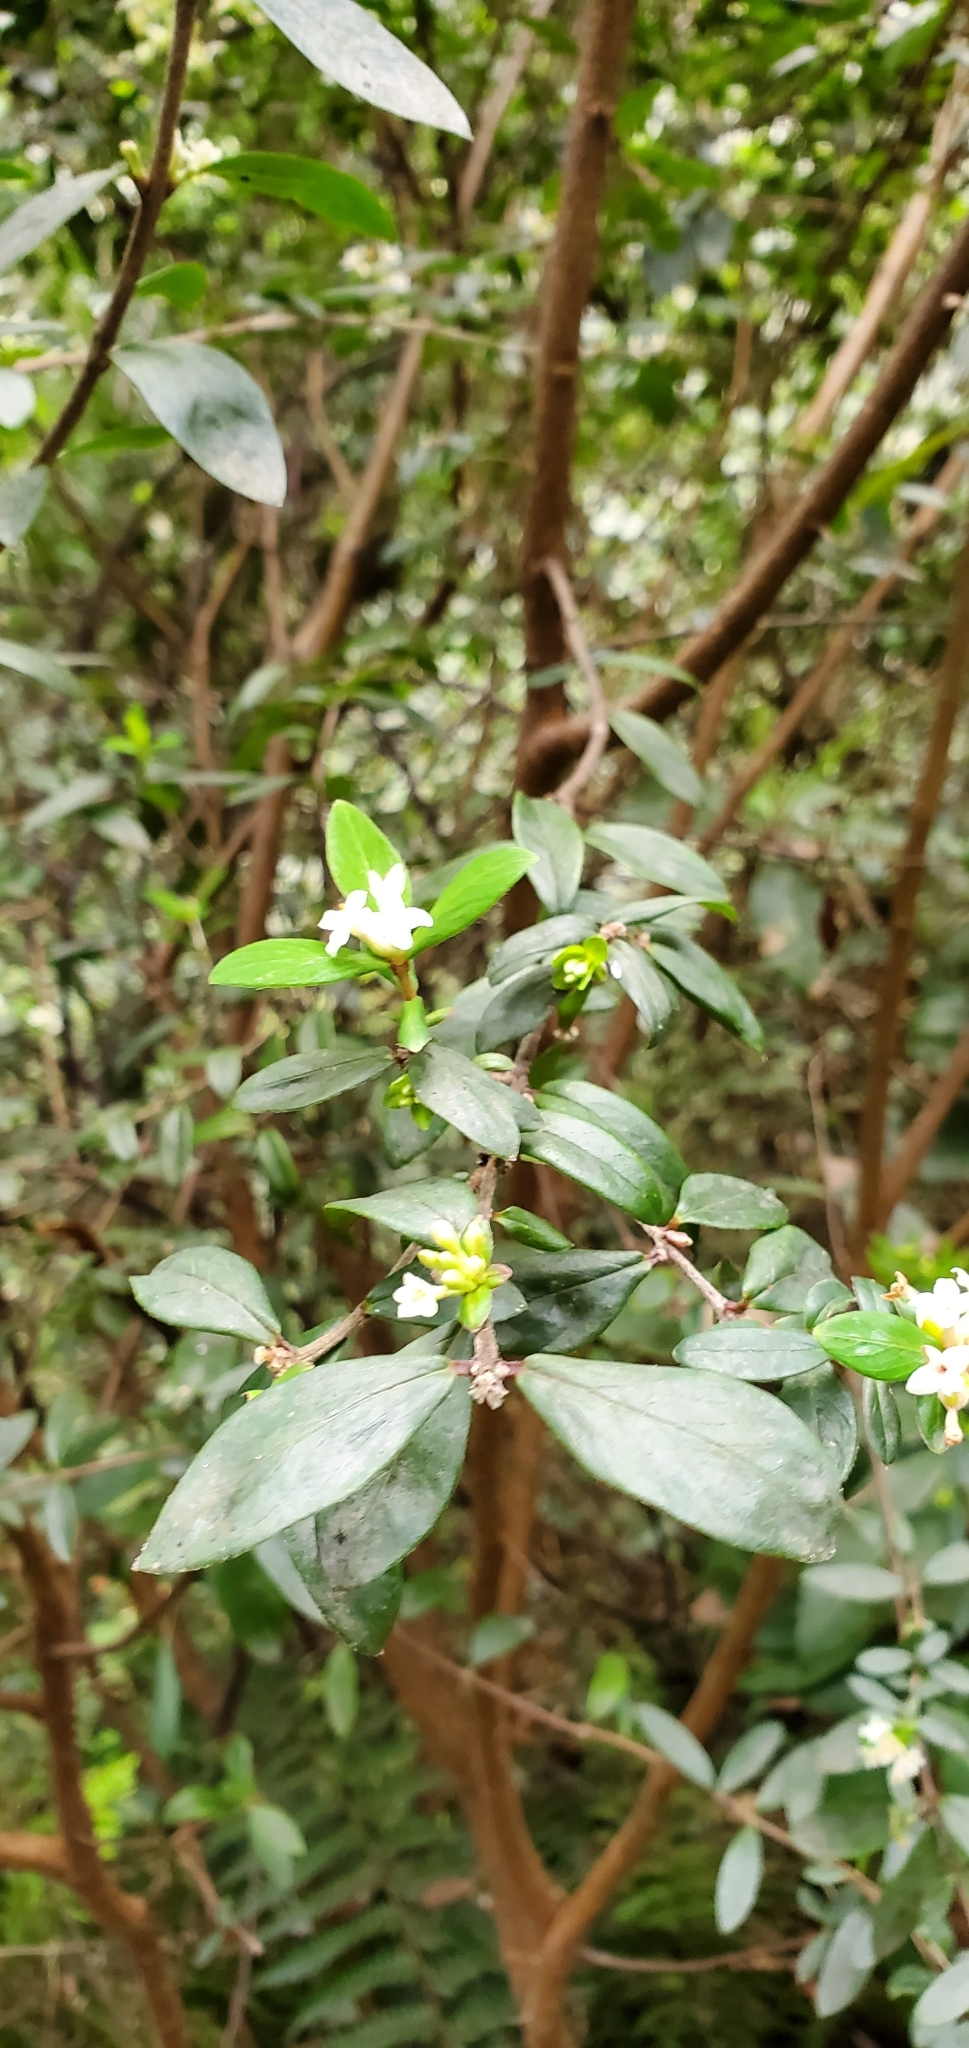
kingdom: Plantae
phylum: Tracheophyta
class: Magnoliopsida
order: Malvales
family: Thymelaeaceae
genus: Pimelea
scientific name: Pimelea drupacea
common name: Cherry riceflower
